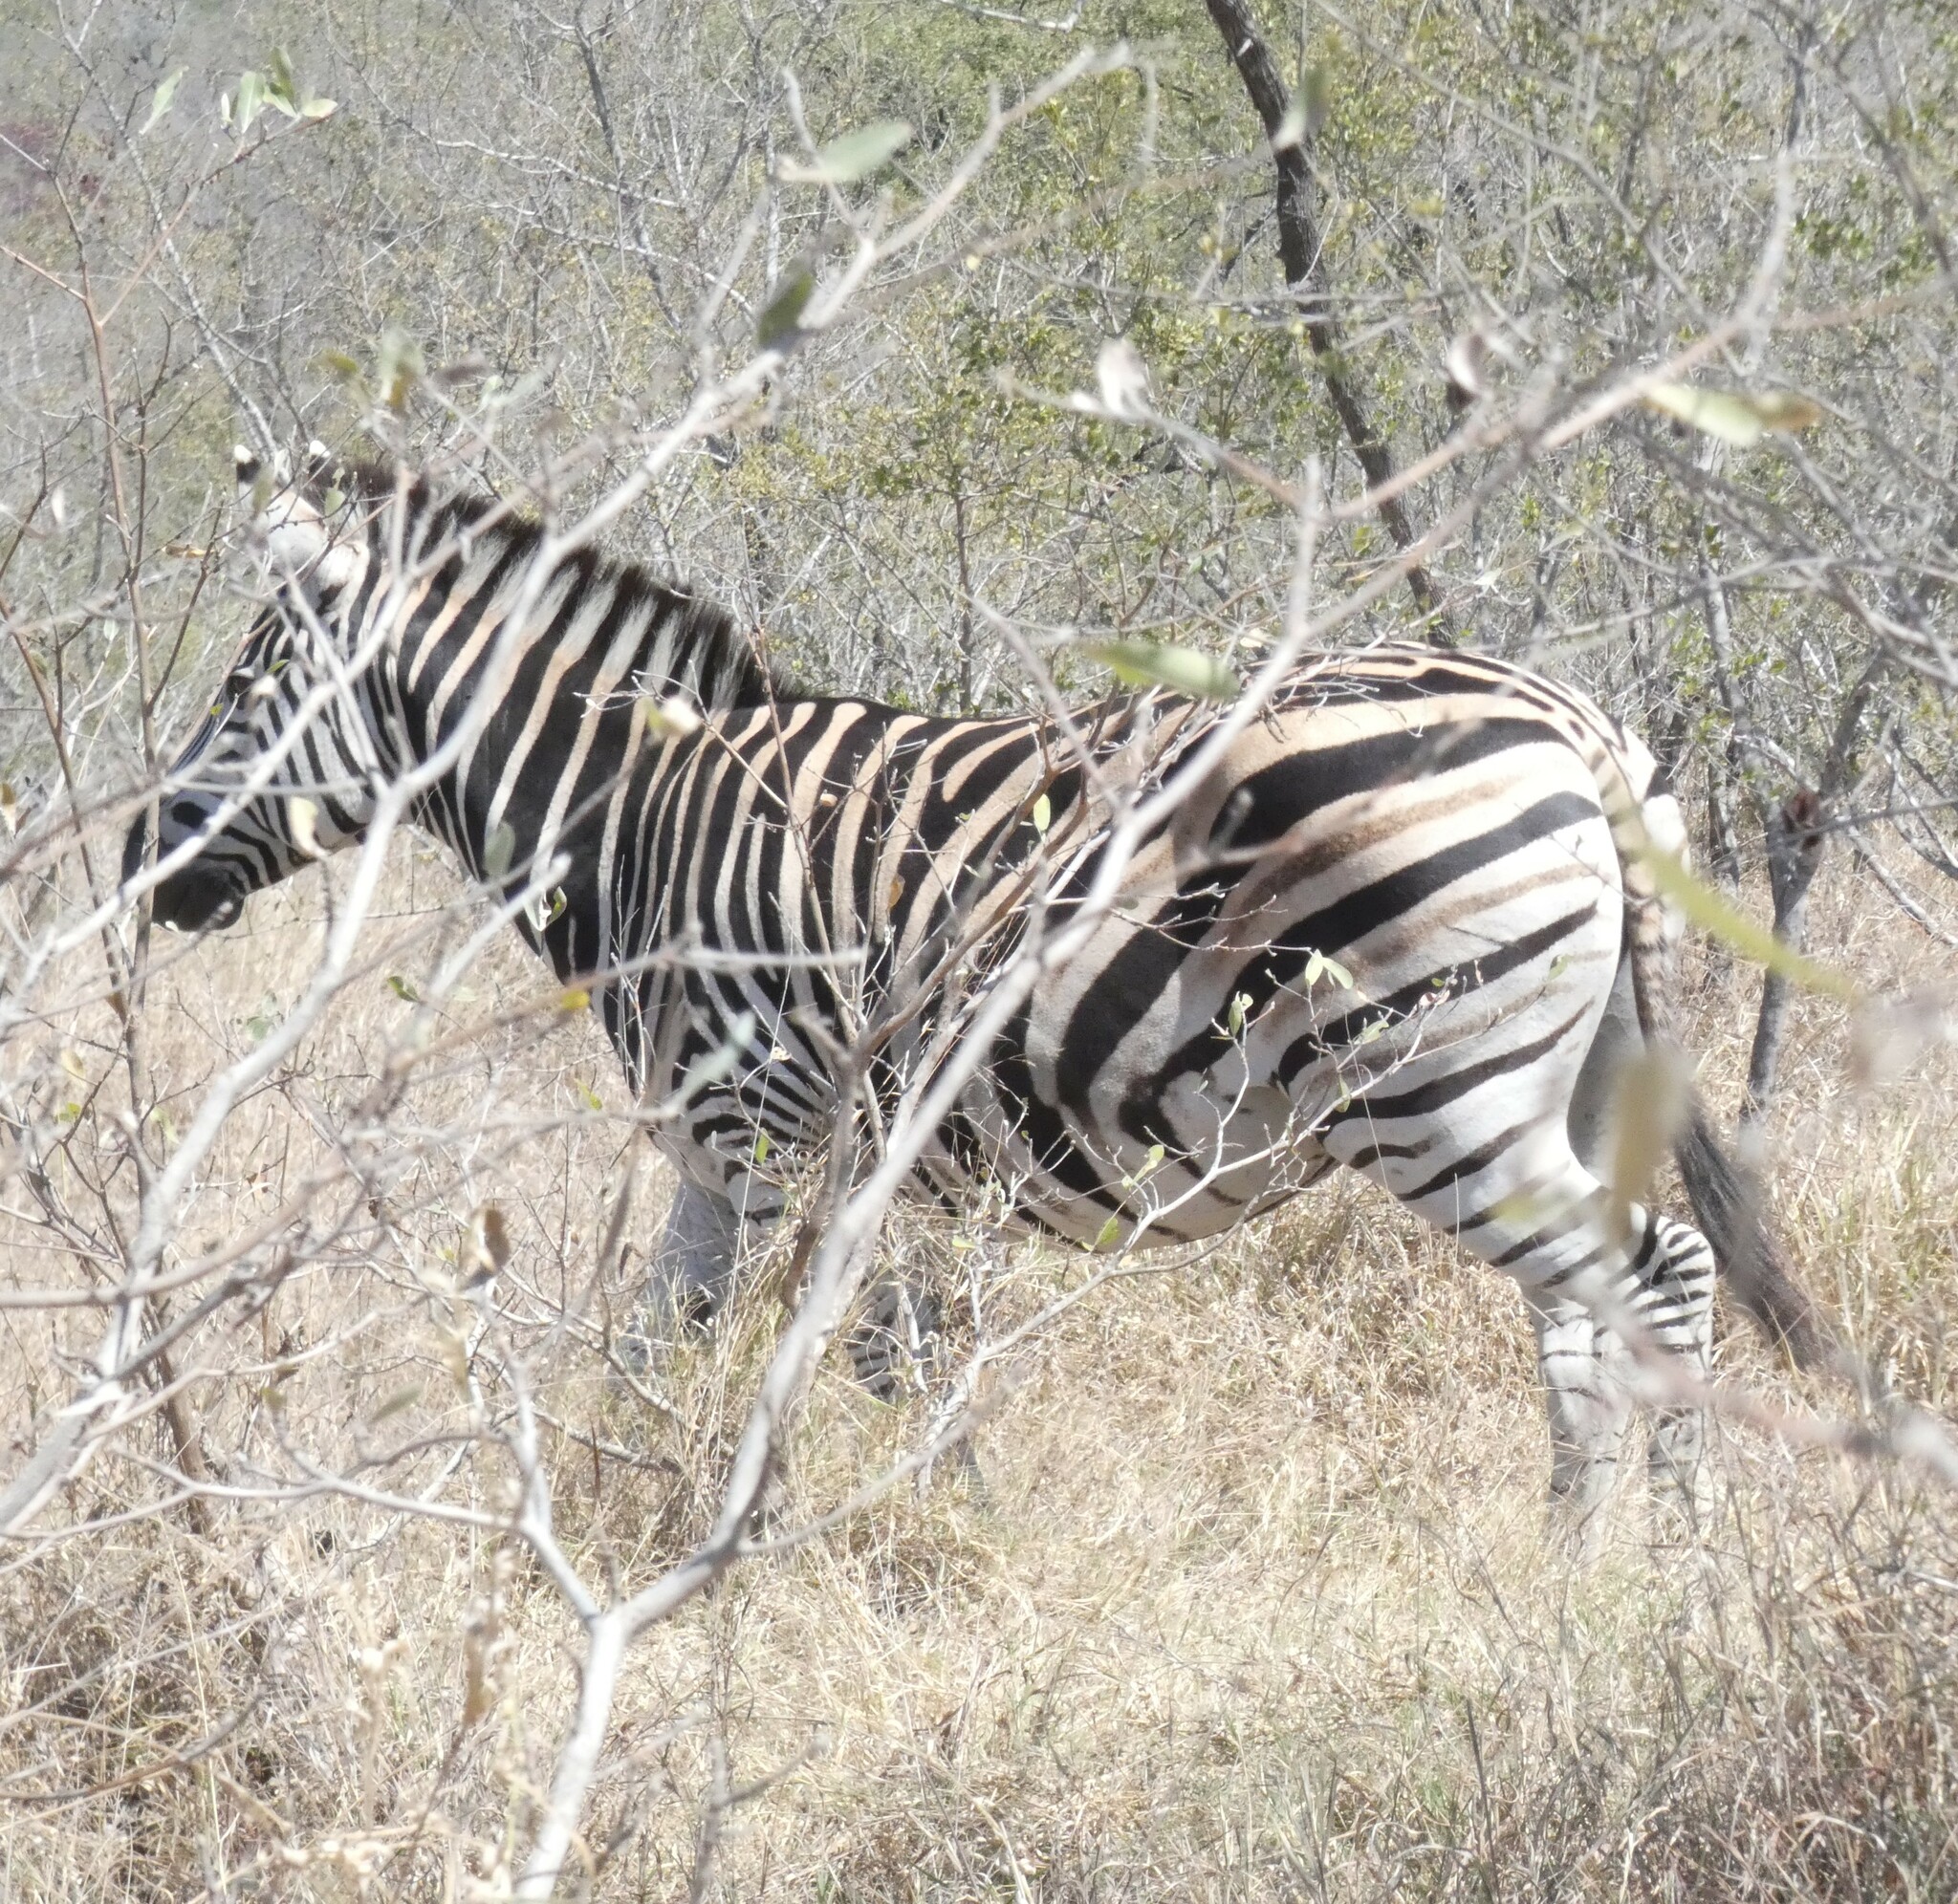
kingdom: Animalia
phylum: Chordata
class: Mammalia
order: Perissodactyla
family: Equidae
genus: Equus
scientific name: Equus quagga
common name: Plains zebra
